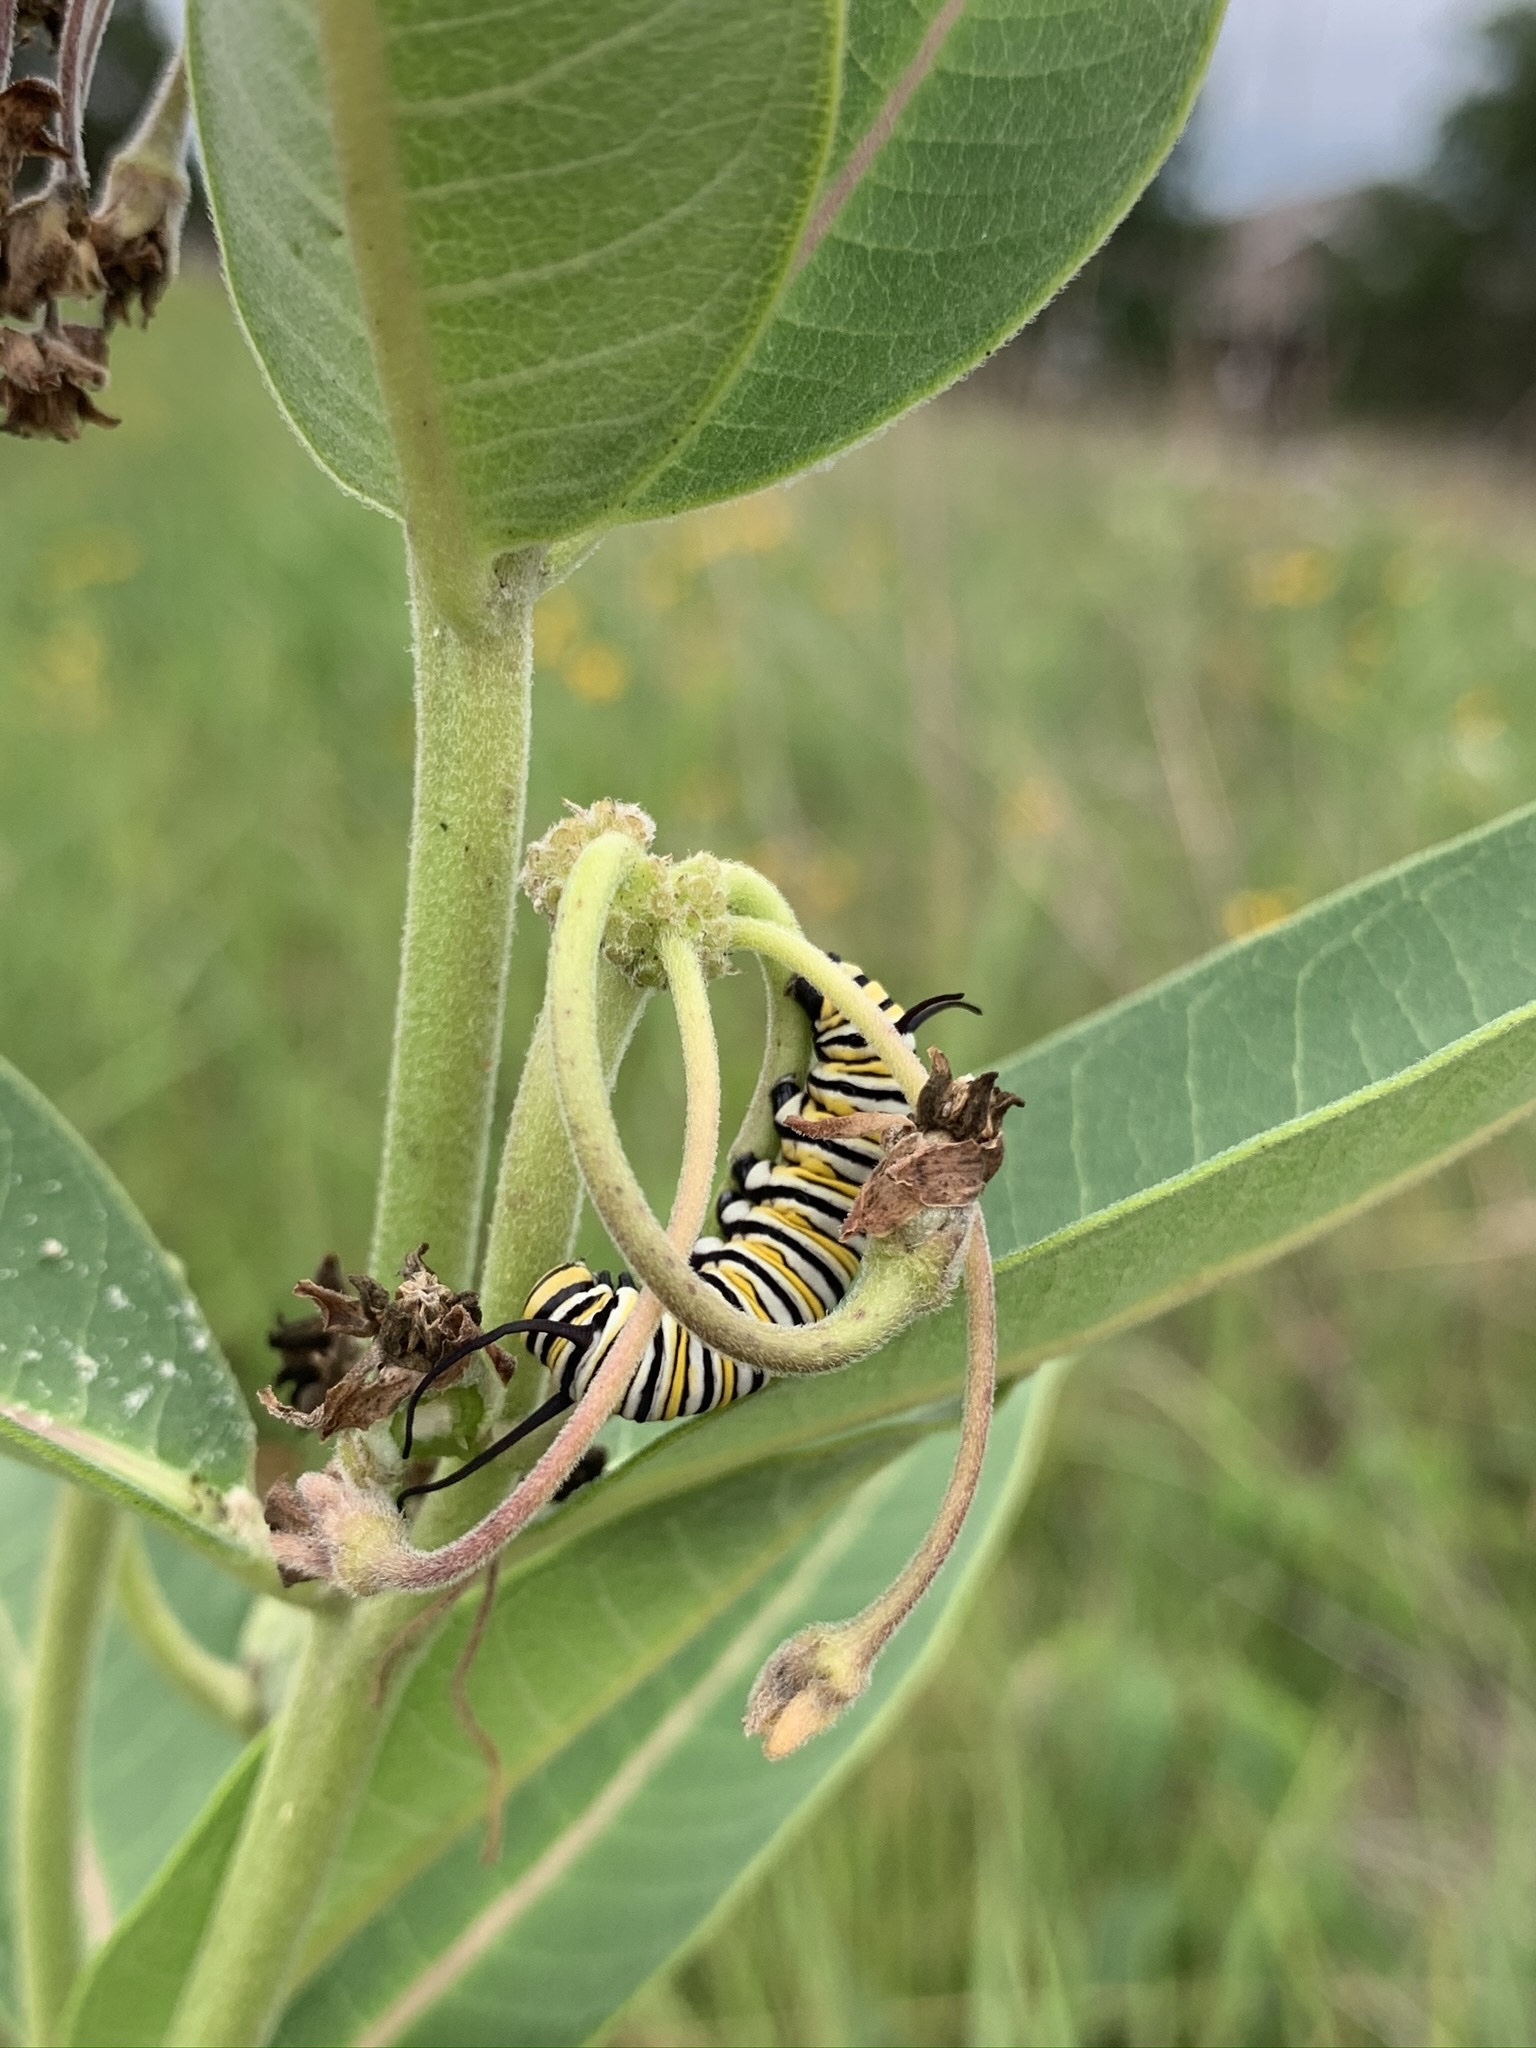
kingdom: Animalia
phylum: Arthropoda
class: Insecta
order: Lepidoptera
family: Nymphalidae
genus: Danaus
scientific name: Danaus plexippus
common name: Monarch
